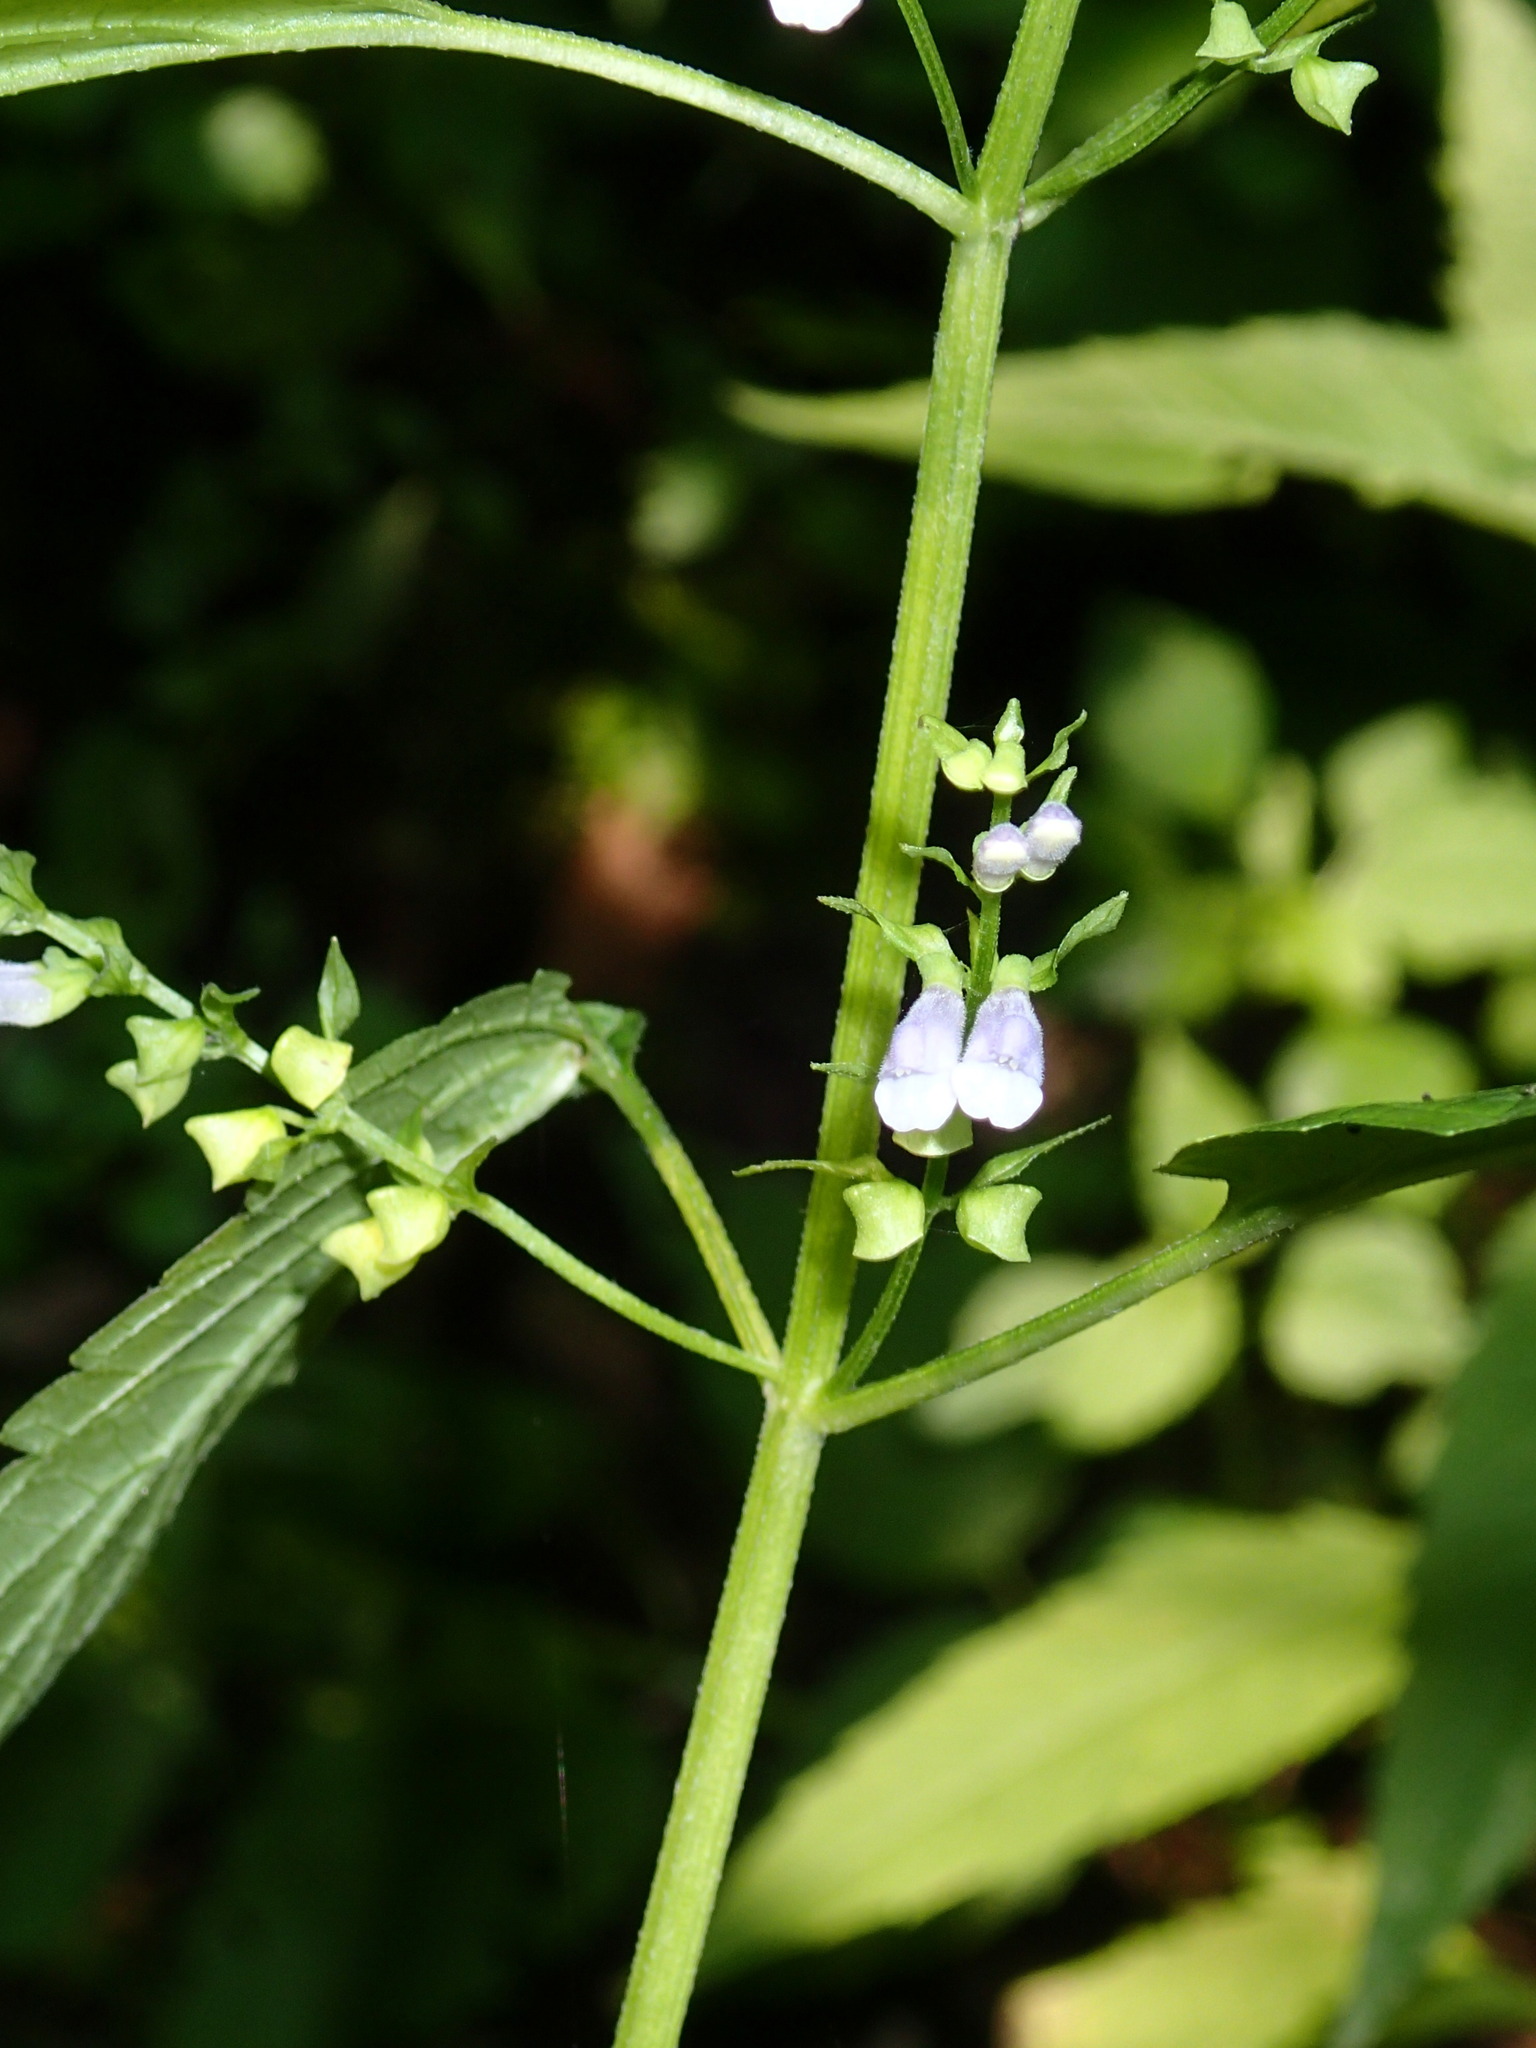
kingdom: Plantae
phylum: Tracheophyta
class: Magnoliopsida
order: Lamiales
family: Lamiaceae
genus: Scutellaria
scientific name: Scutellaria lateriflora
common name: Blue skullcap
